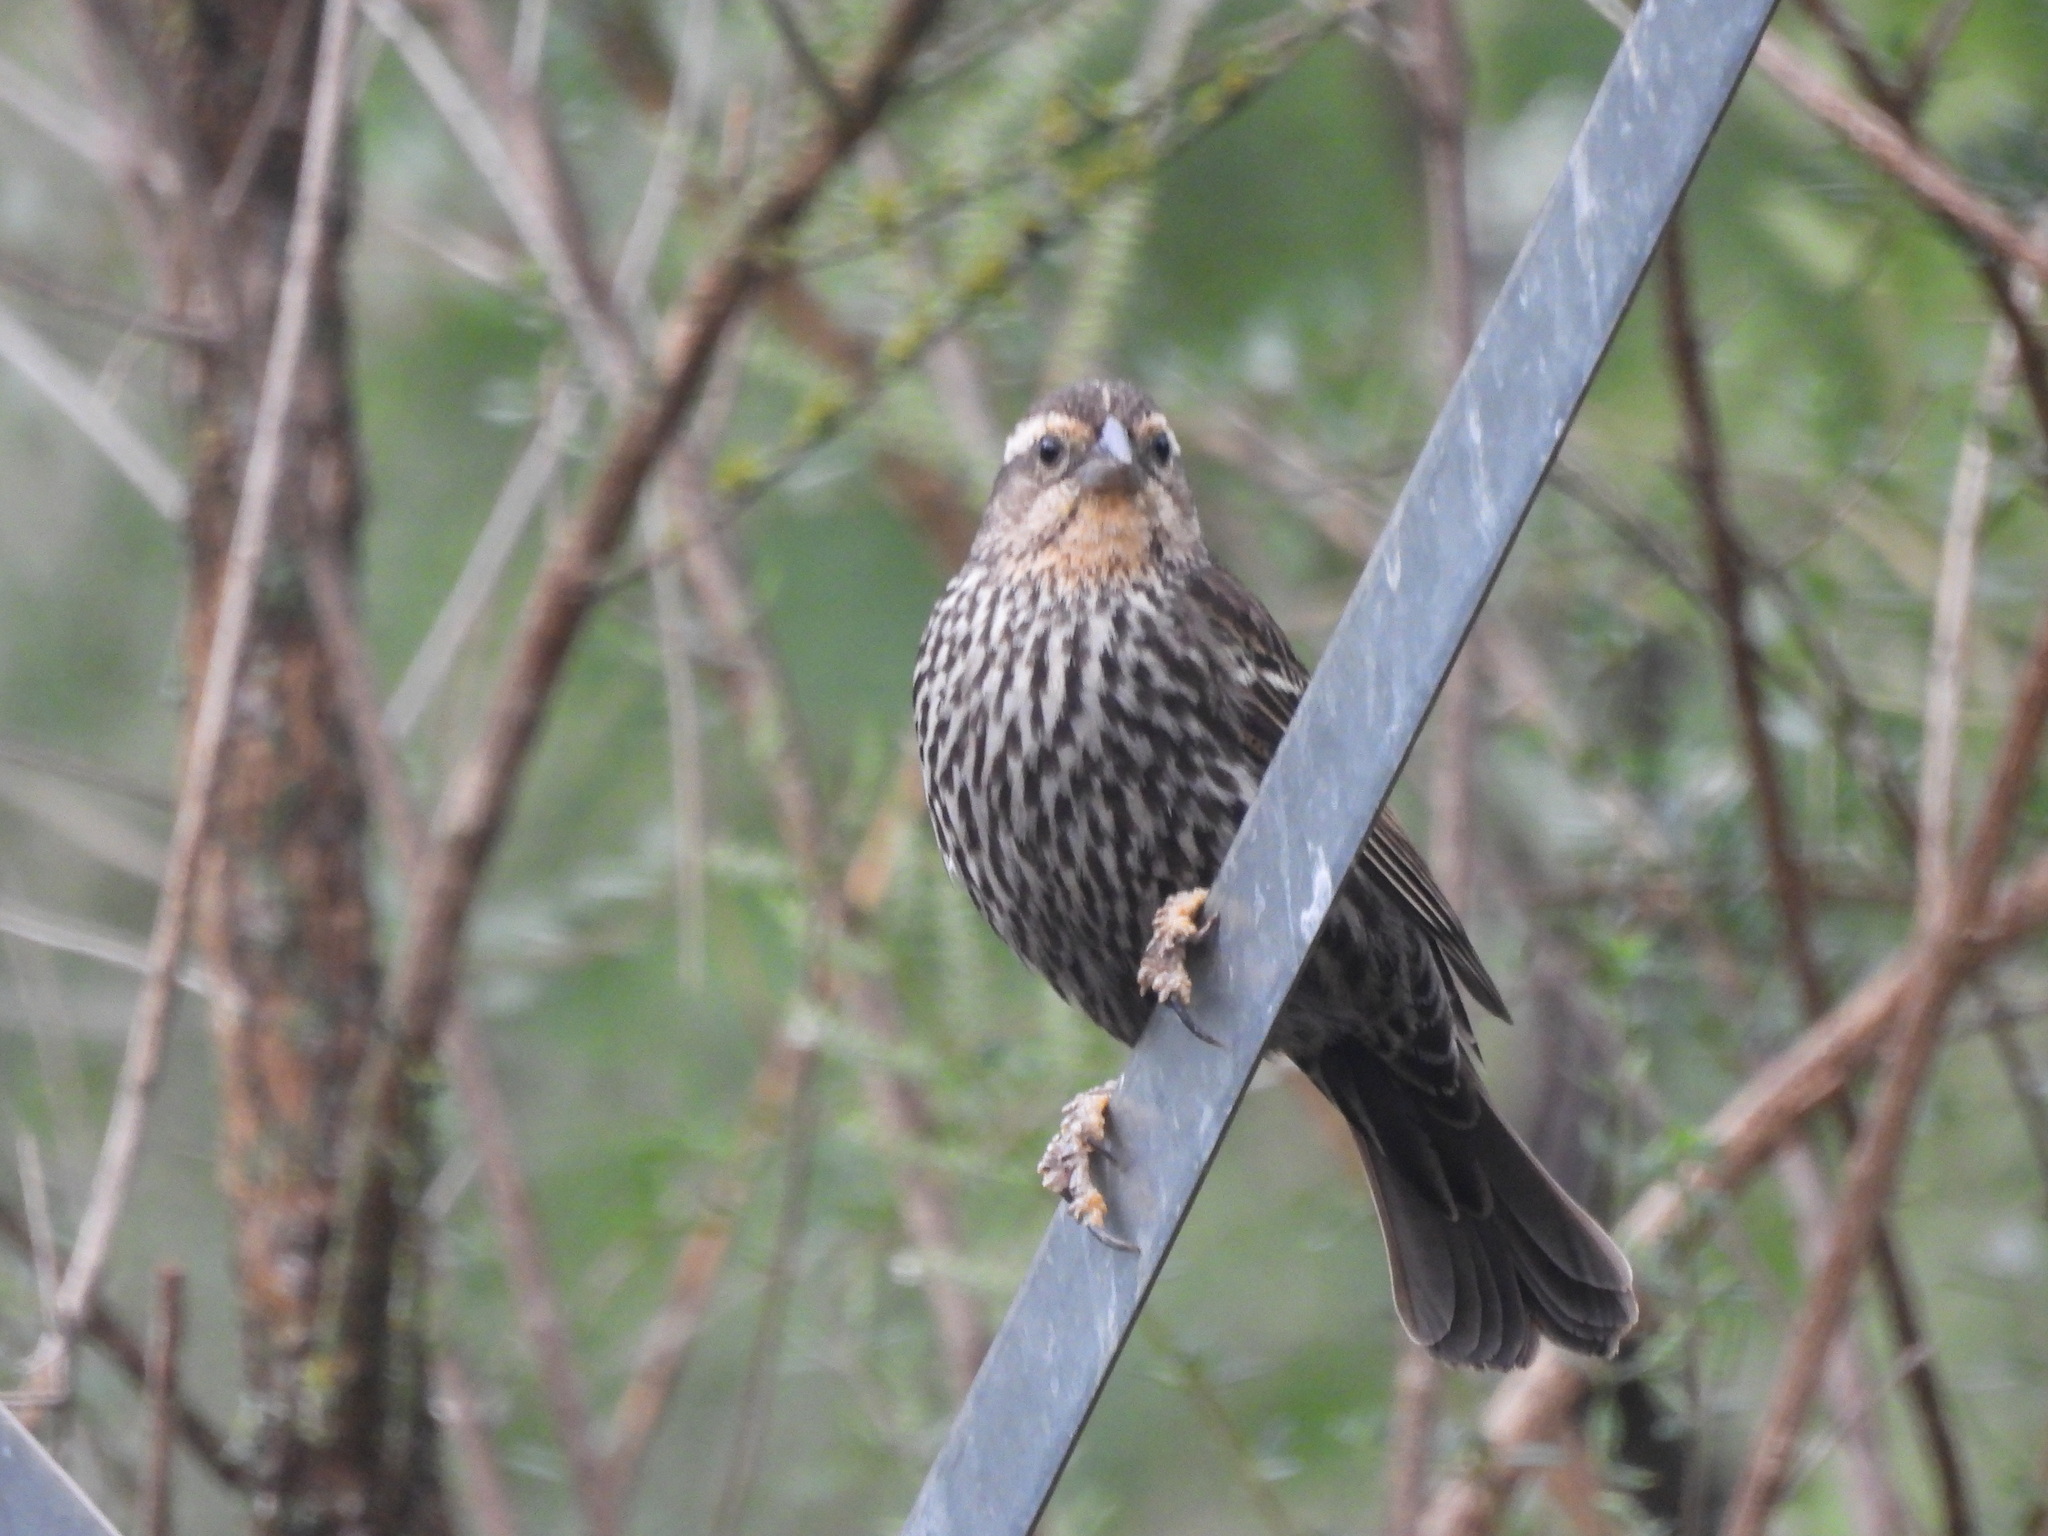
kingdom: Animalia
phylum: Chordata
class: Aves
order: Passeriformes
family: Icteridae
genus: Agelaius
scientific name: Agelaius phoeniceus
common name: Red-winged blackbird
